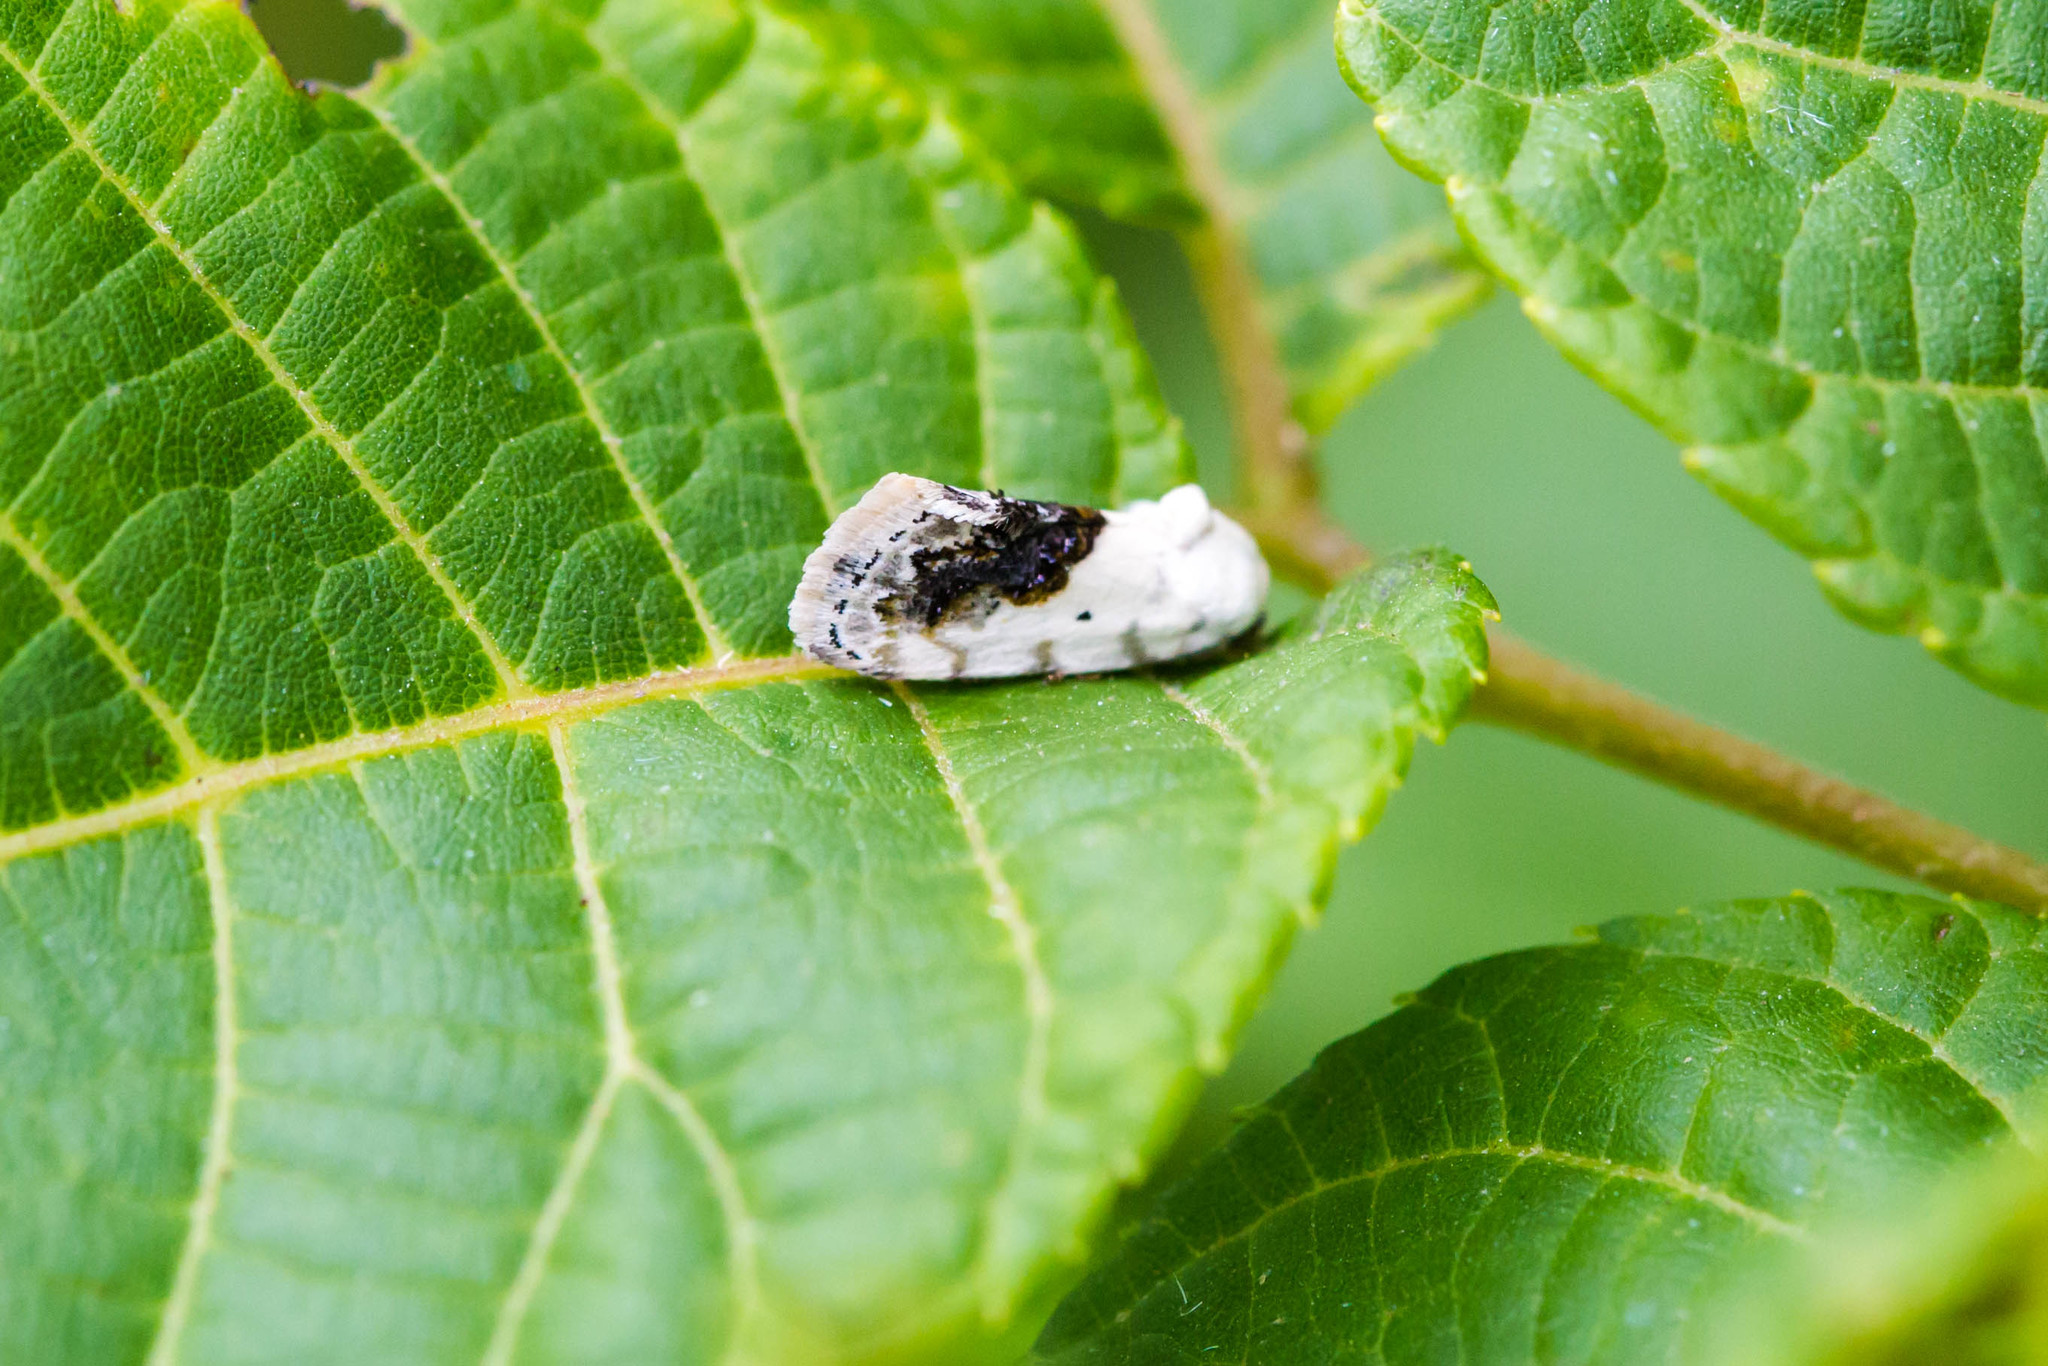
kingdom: Animalia
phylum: Arthropoda
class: Insecta
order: Lepidoptera
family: Noctuidae
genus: Acontia
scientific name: Acontia erastrioides
